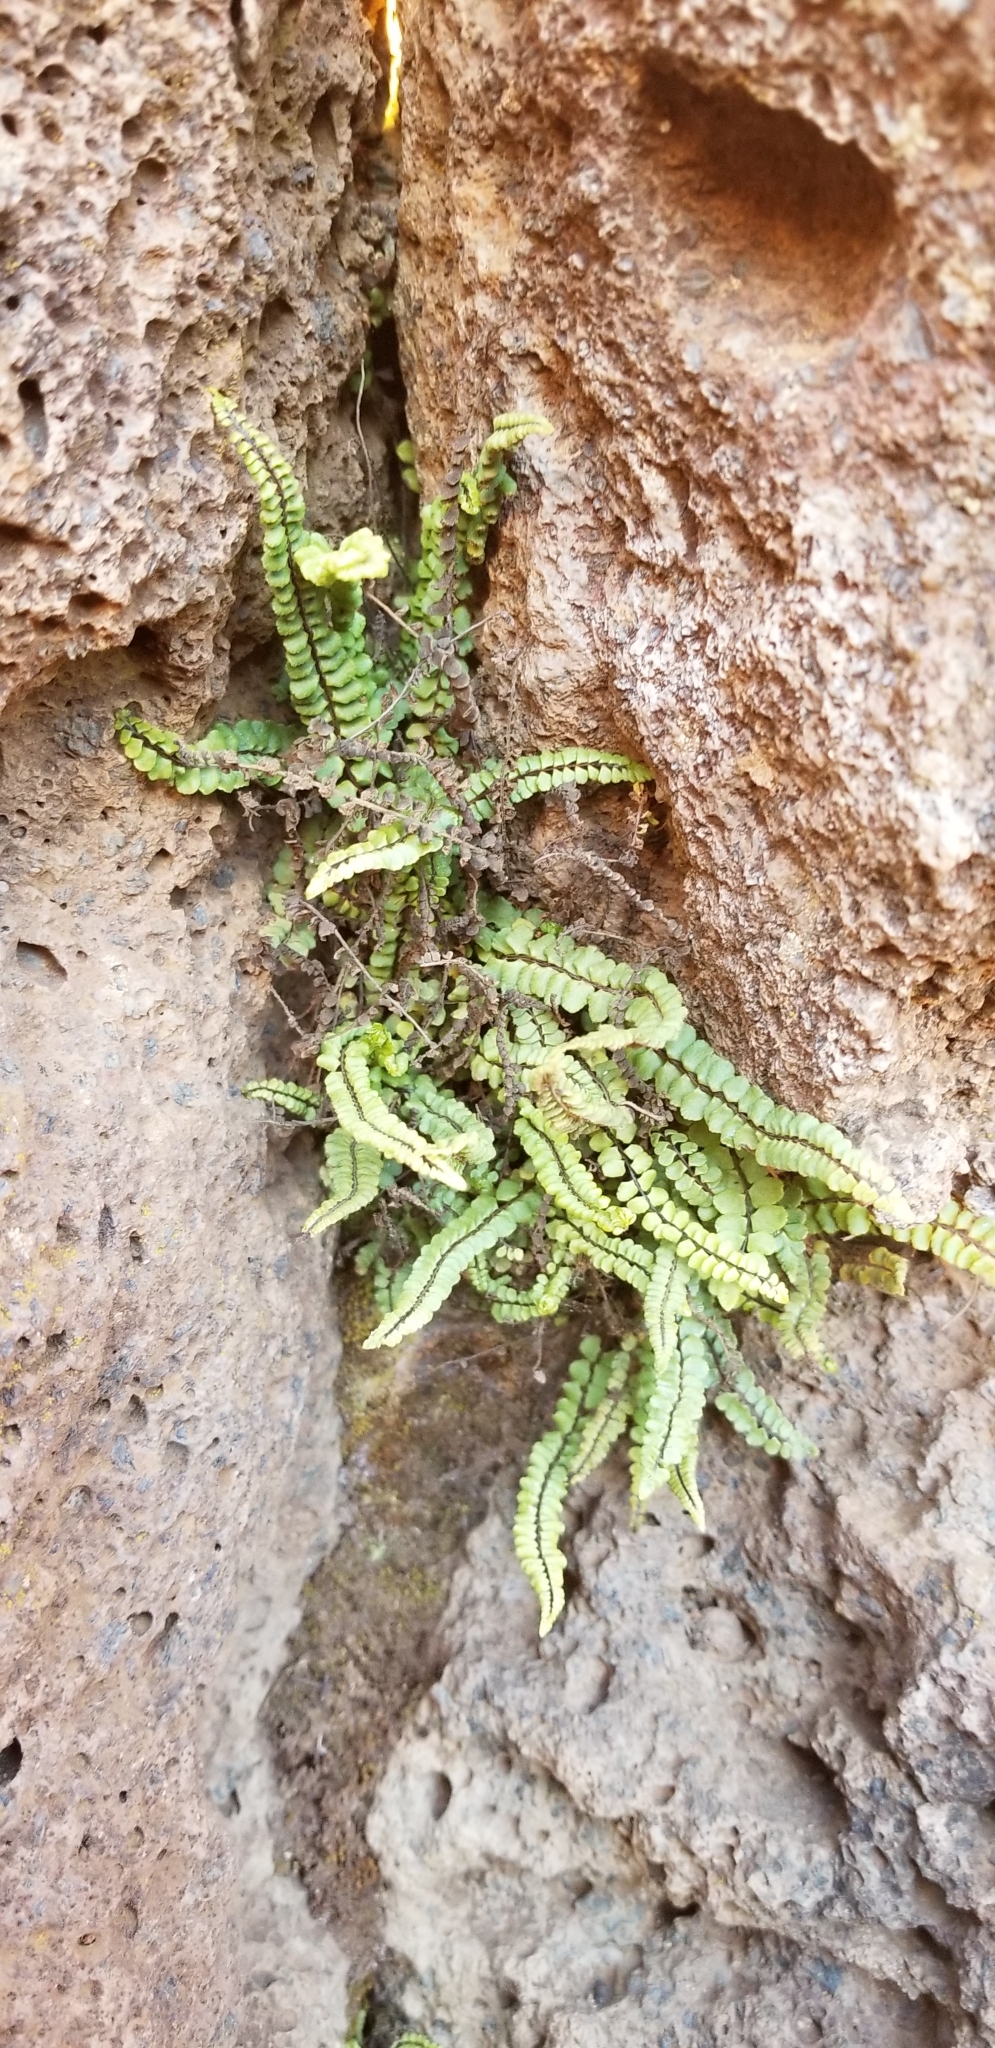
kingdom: Plantae
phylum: Tracheophyta
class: Polypodiopsida
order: Polypodiales
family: Aspleniaceae
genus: Asplenium
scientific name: Asplenium densum
